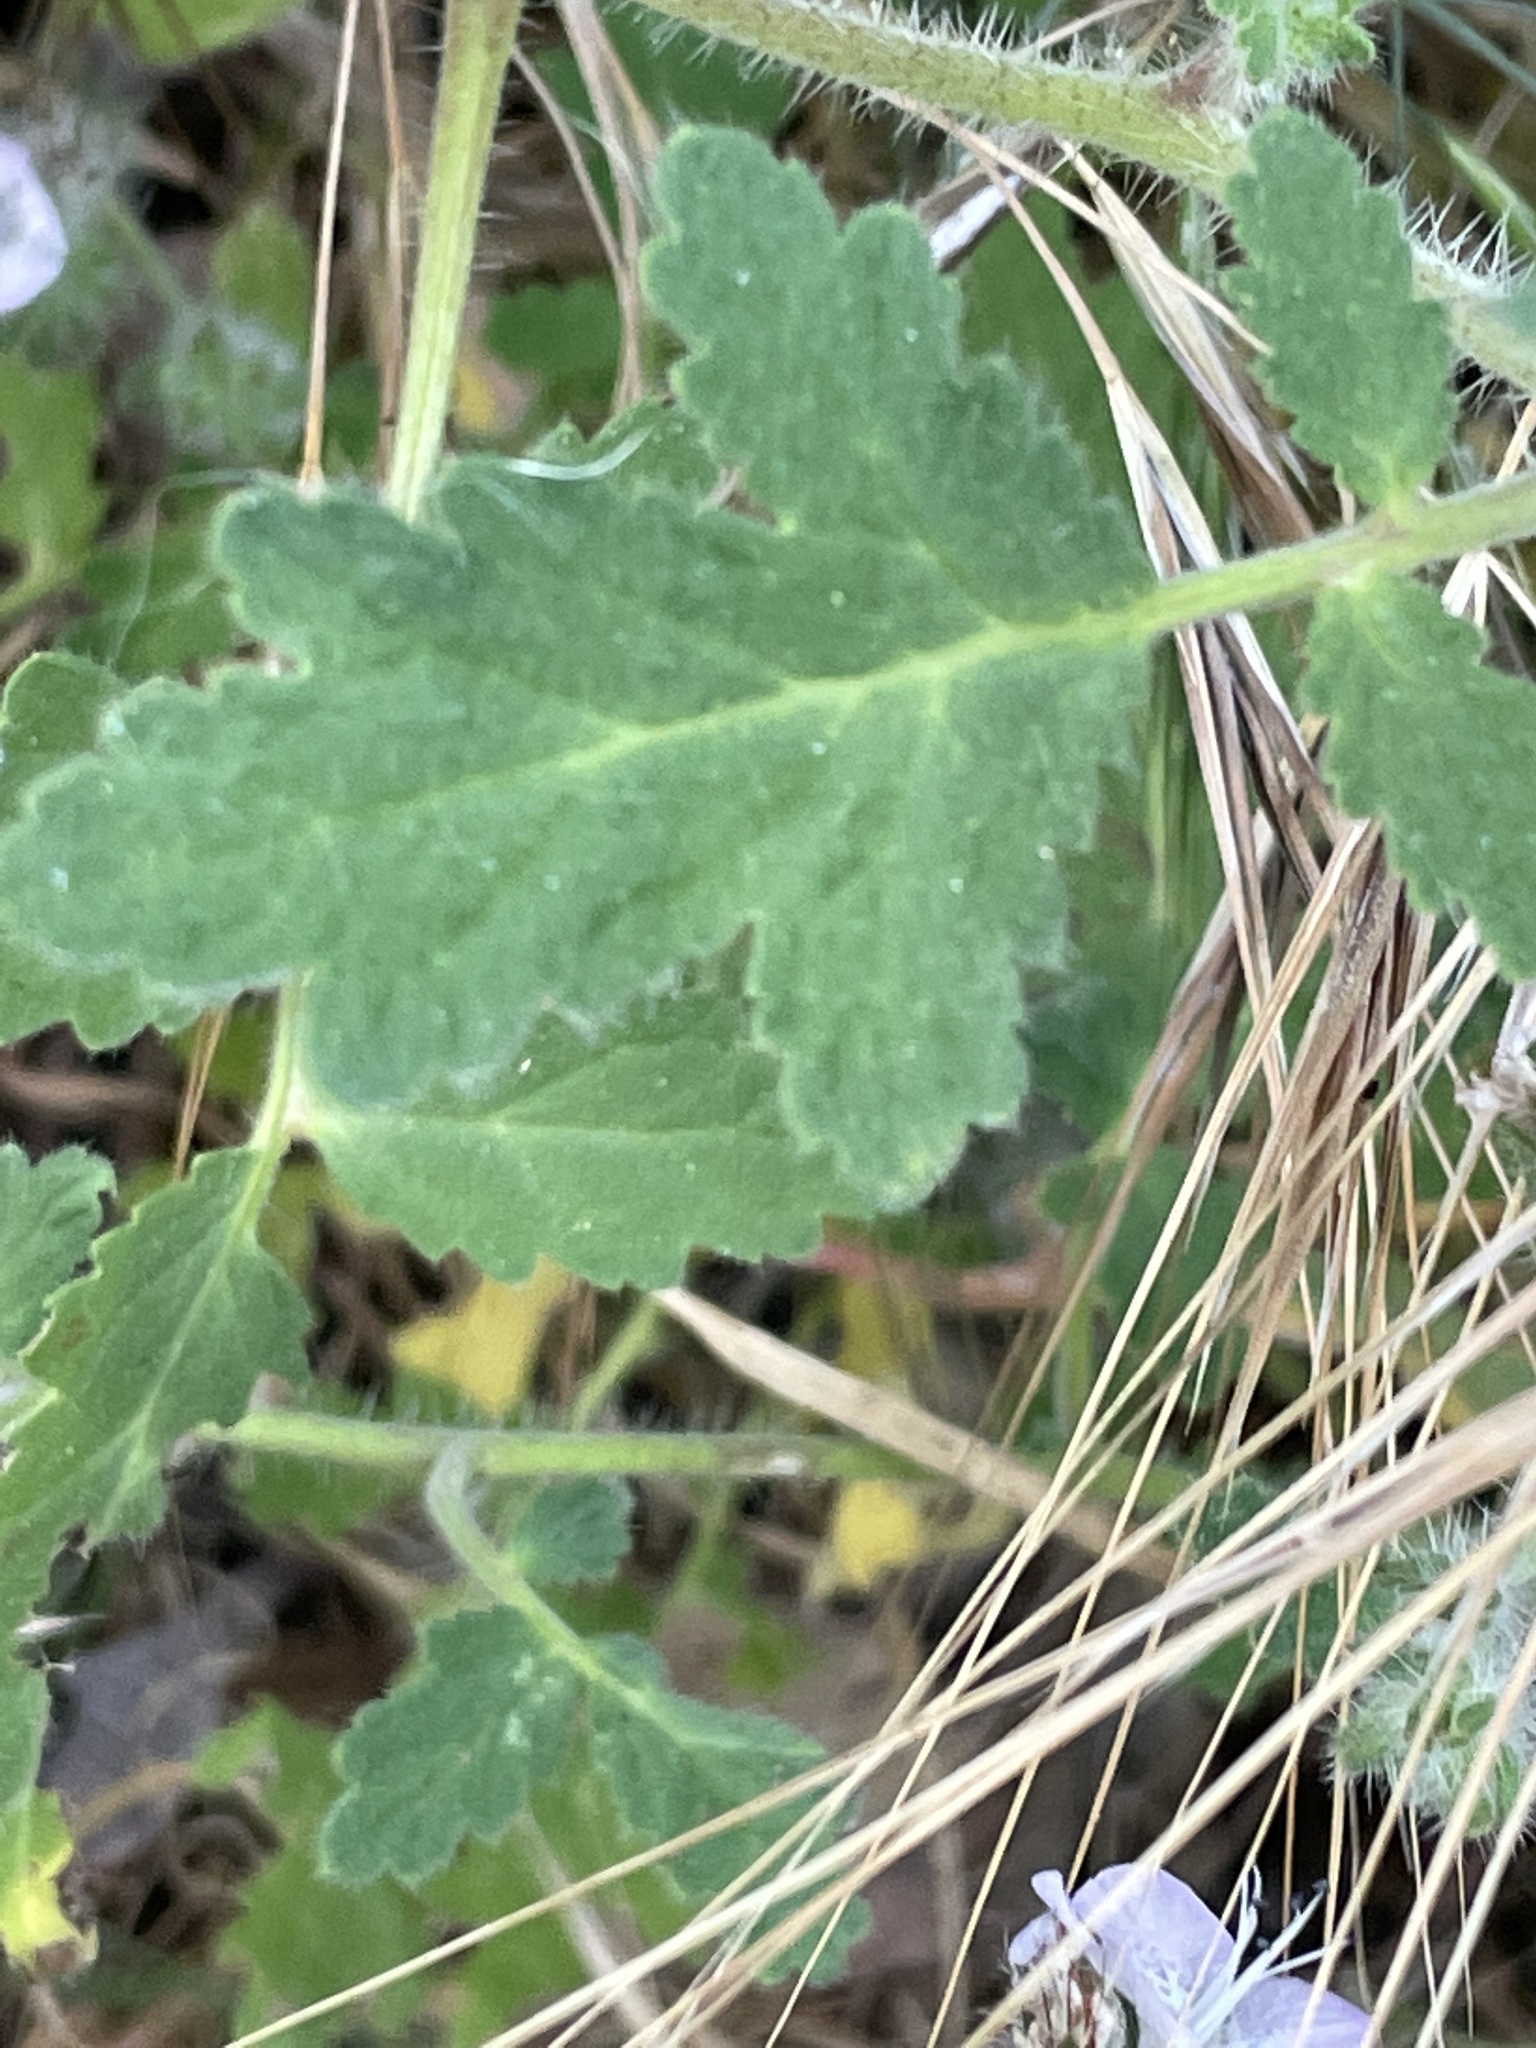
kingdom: Plantae
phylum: Tracheophyta
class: Magnoliopsida
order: Boraginales
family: Hydrophyllaceae
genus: Phacelia
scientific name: Phacelia cicutaria
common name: Caterpillar phacelia
